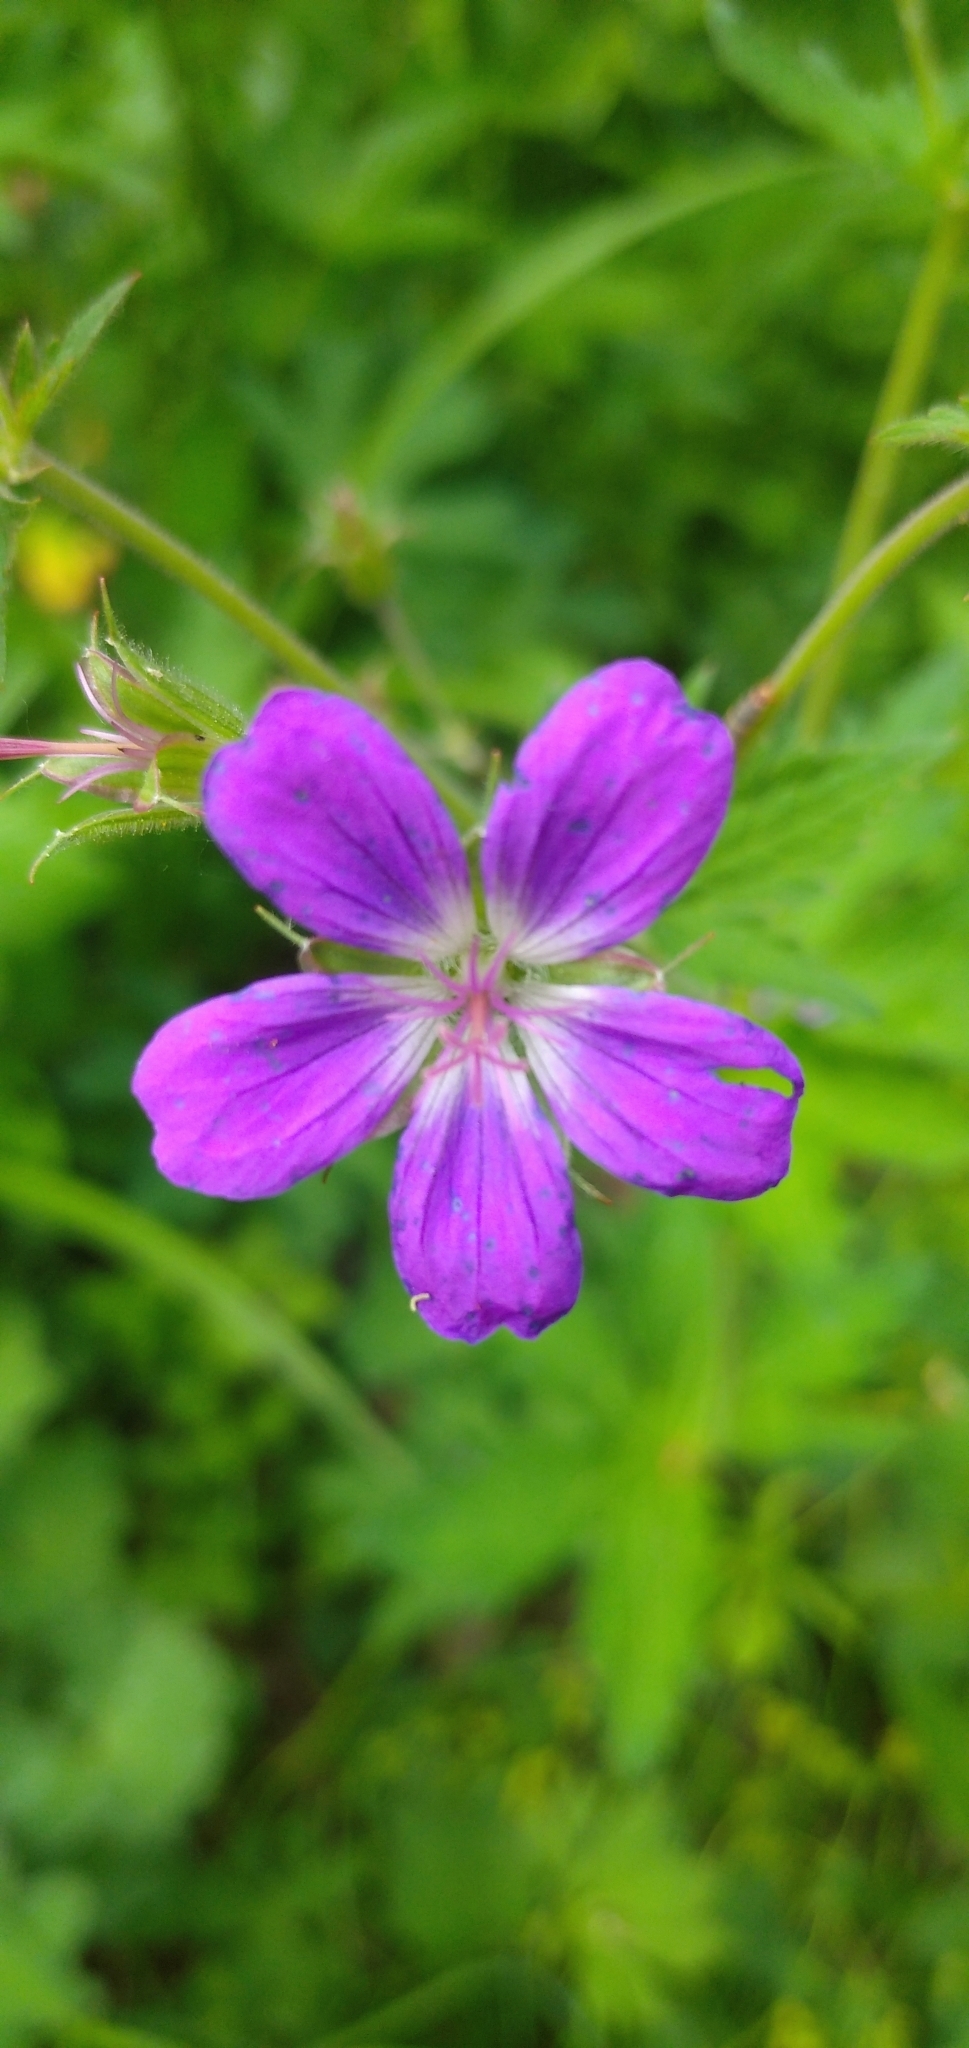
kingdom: Plantae
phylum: Tracheophyta
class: Magnoliopsida
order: Geraniales
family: Geraniaceae
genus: Geranium
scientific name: Geranium sylvaticum
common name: Wood crane's-bill
